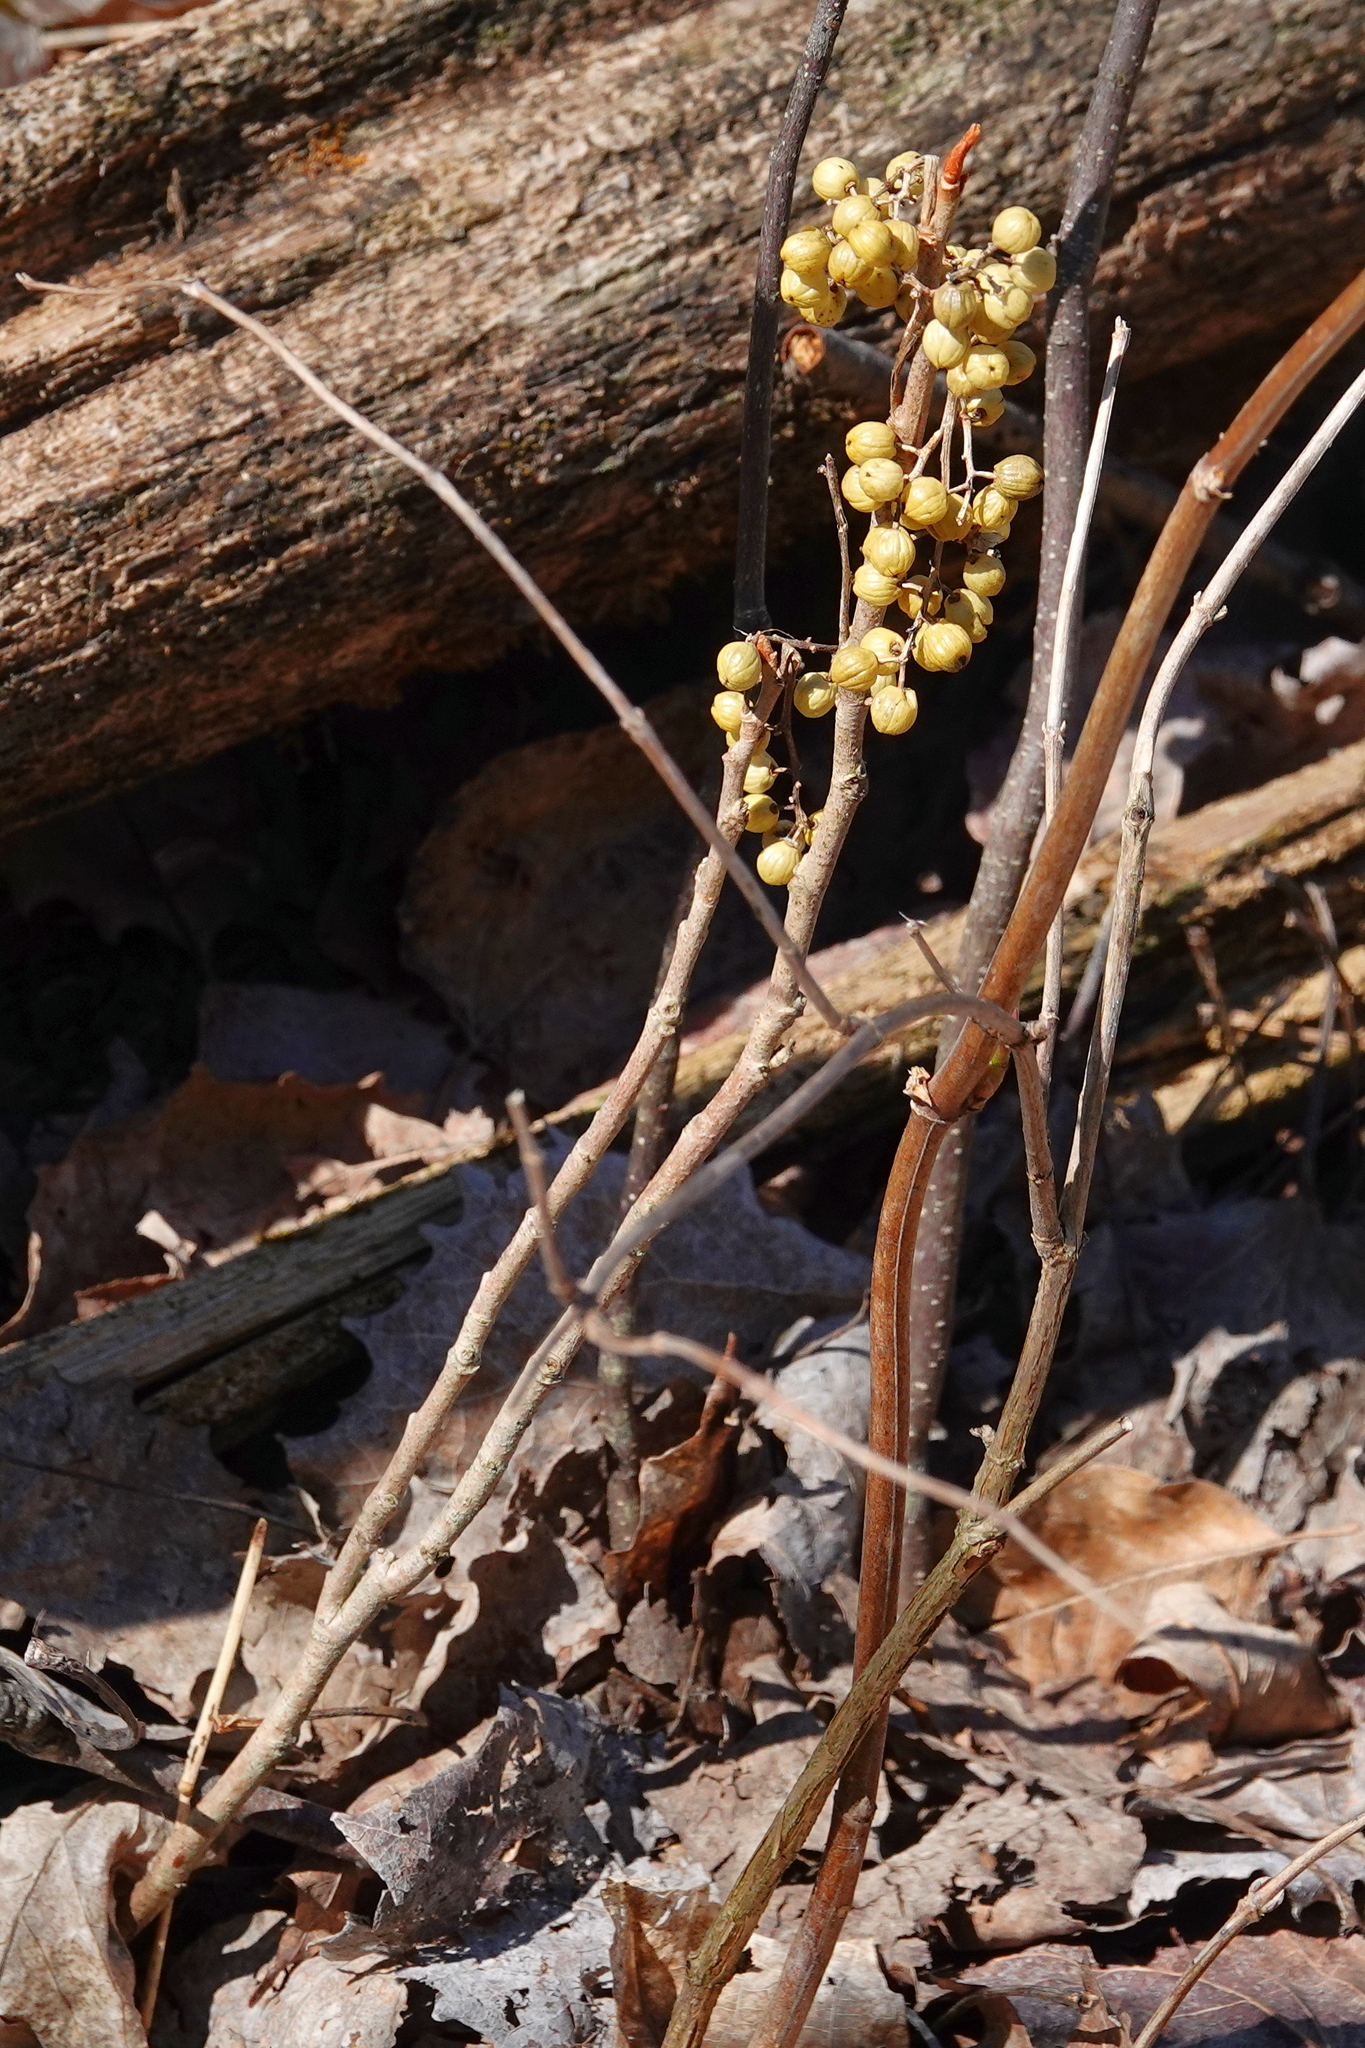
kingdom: Plantae
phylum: Tracheophyta
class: Magnoliopsida
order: Sapindales
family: Anacardiaceae
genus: Toxicodendron
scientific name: Toxicodendron rydbergii
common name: Rydberg's poison-ivy
